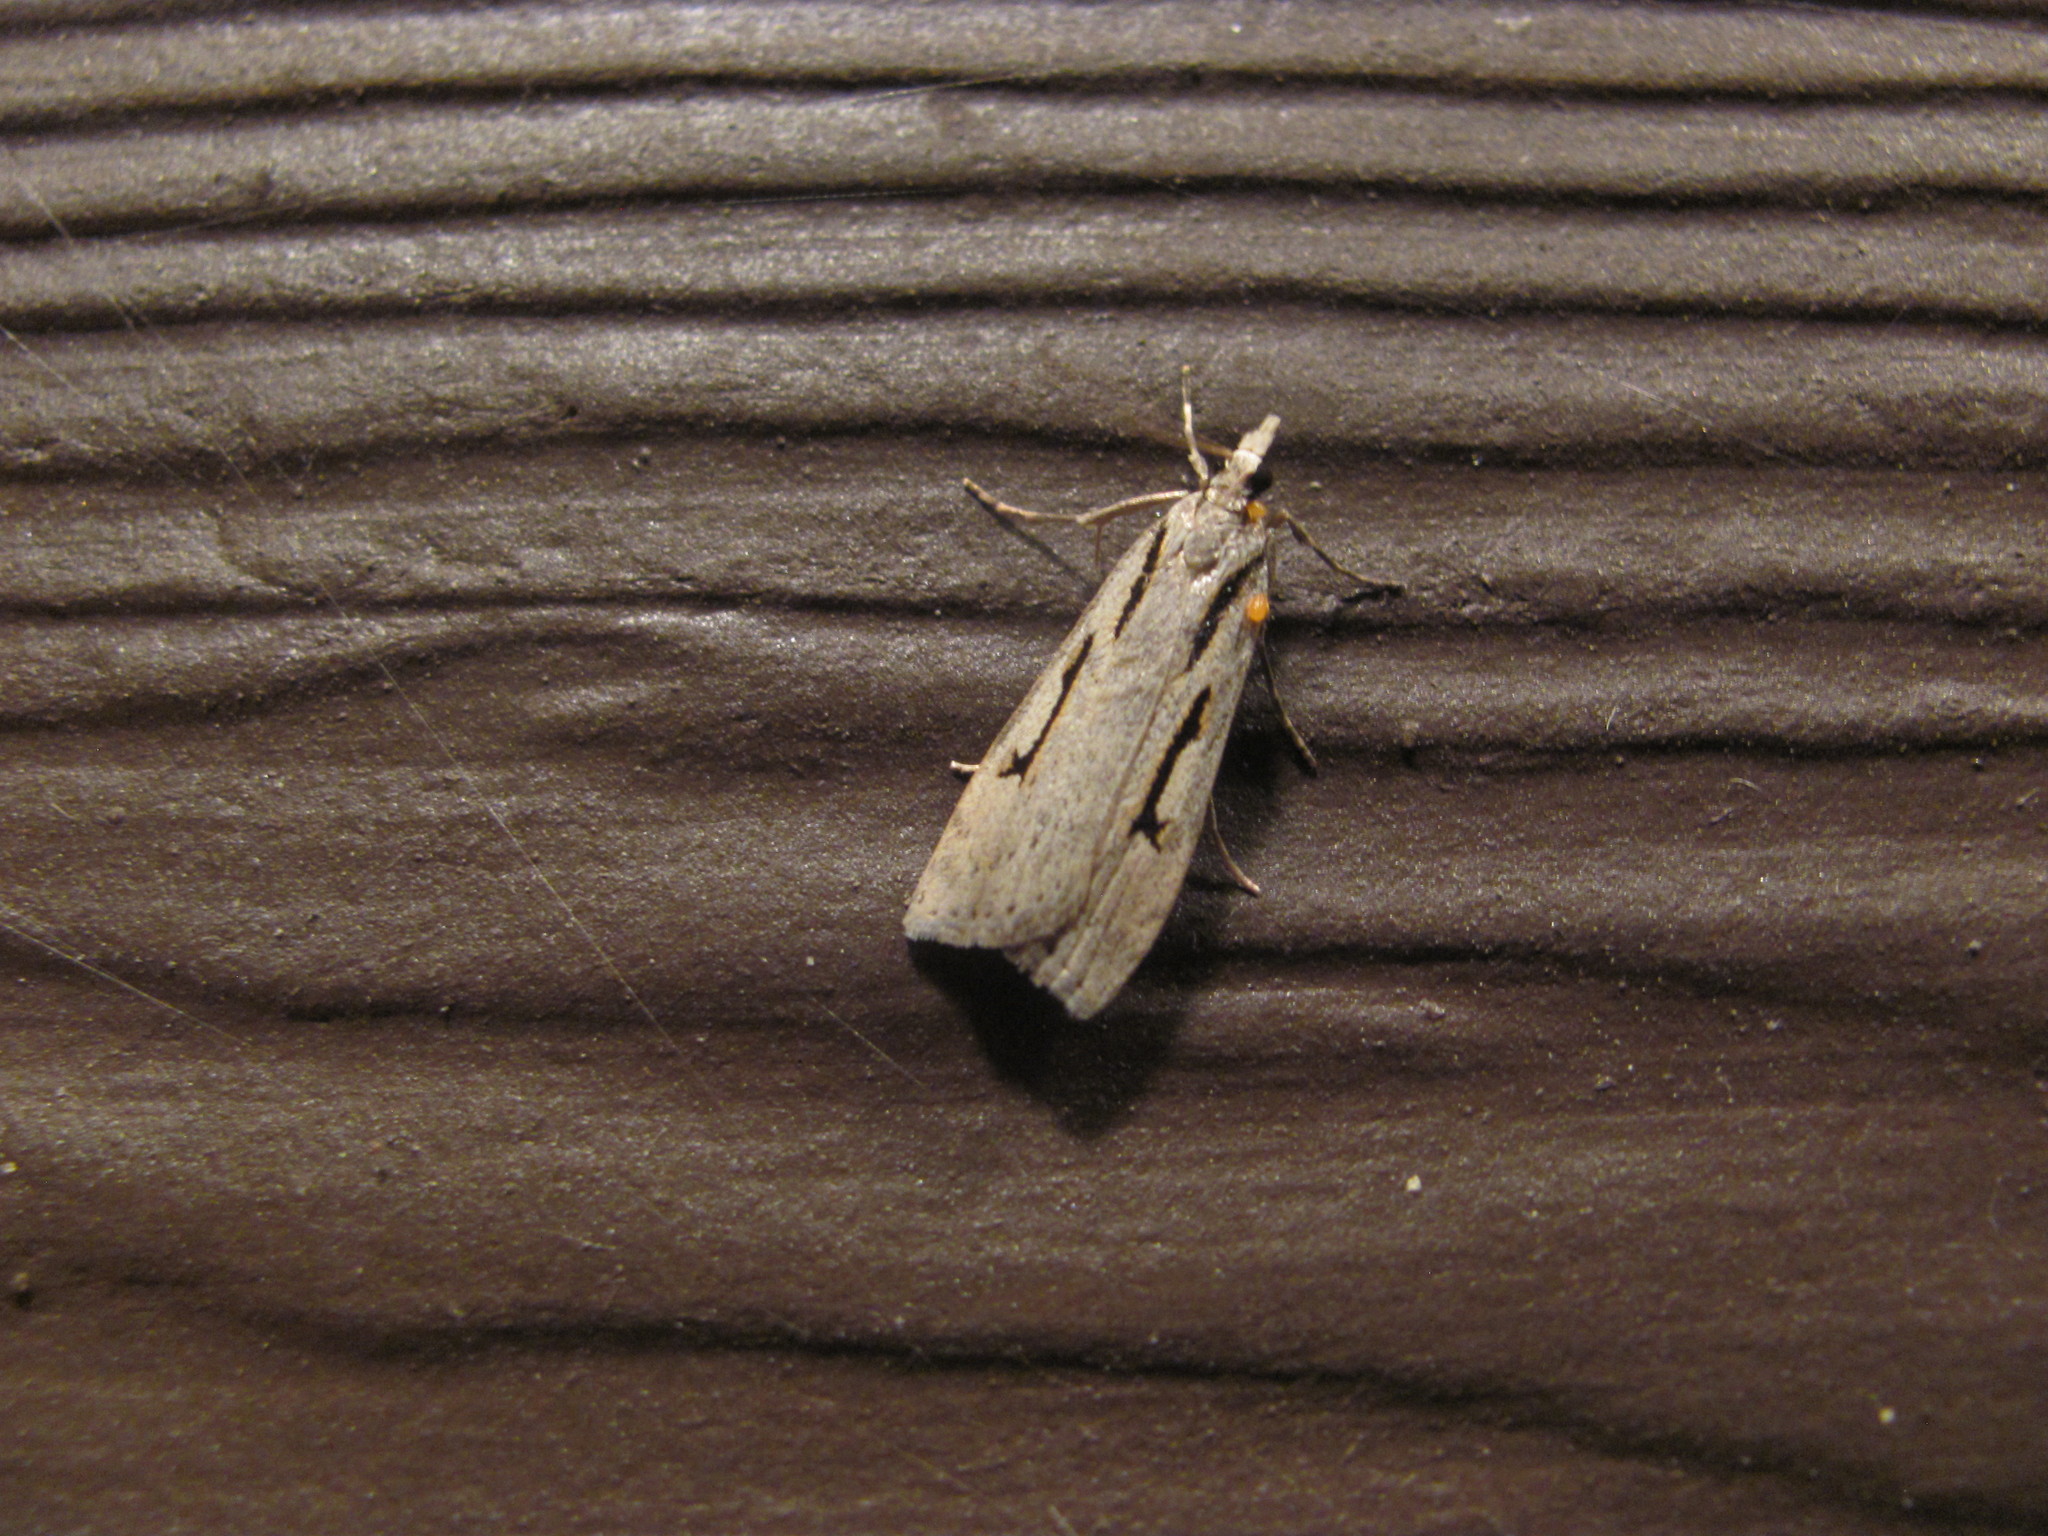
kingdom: Animalia
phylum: Arthropoda
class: Insecta
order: Lepidoptera
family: Crambidae
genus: Scoparia
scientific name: Scoparia rotuellus
